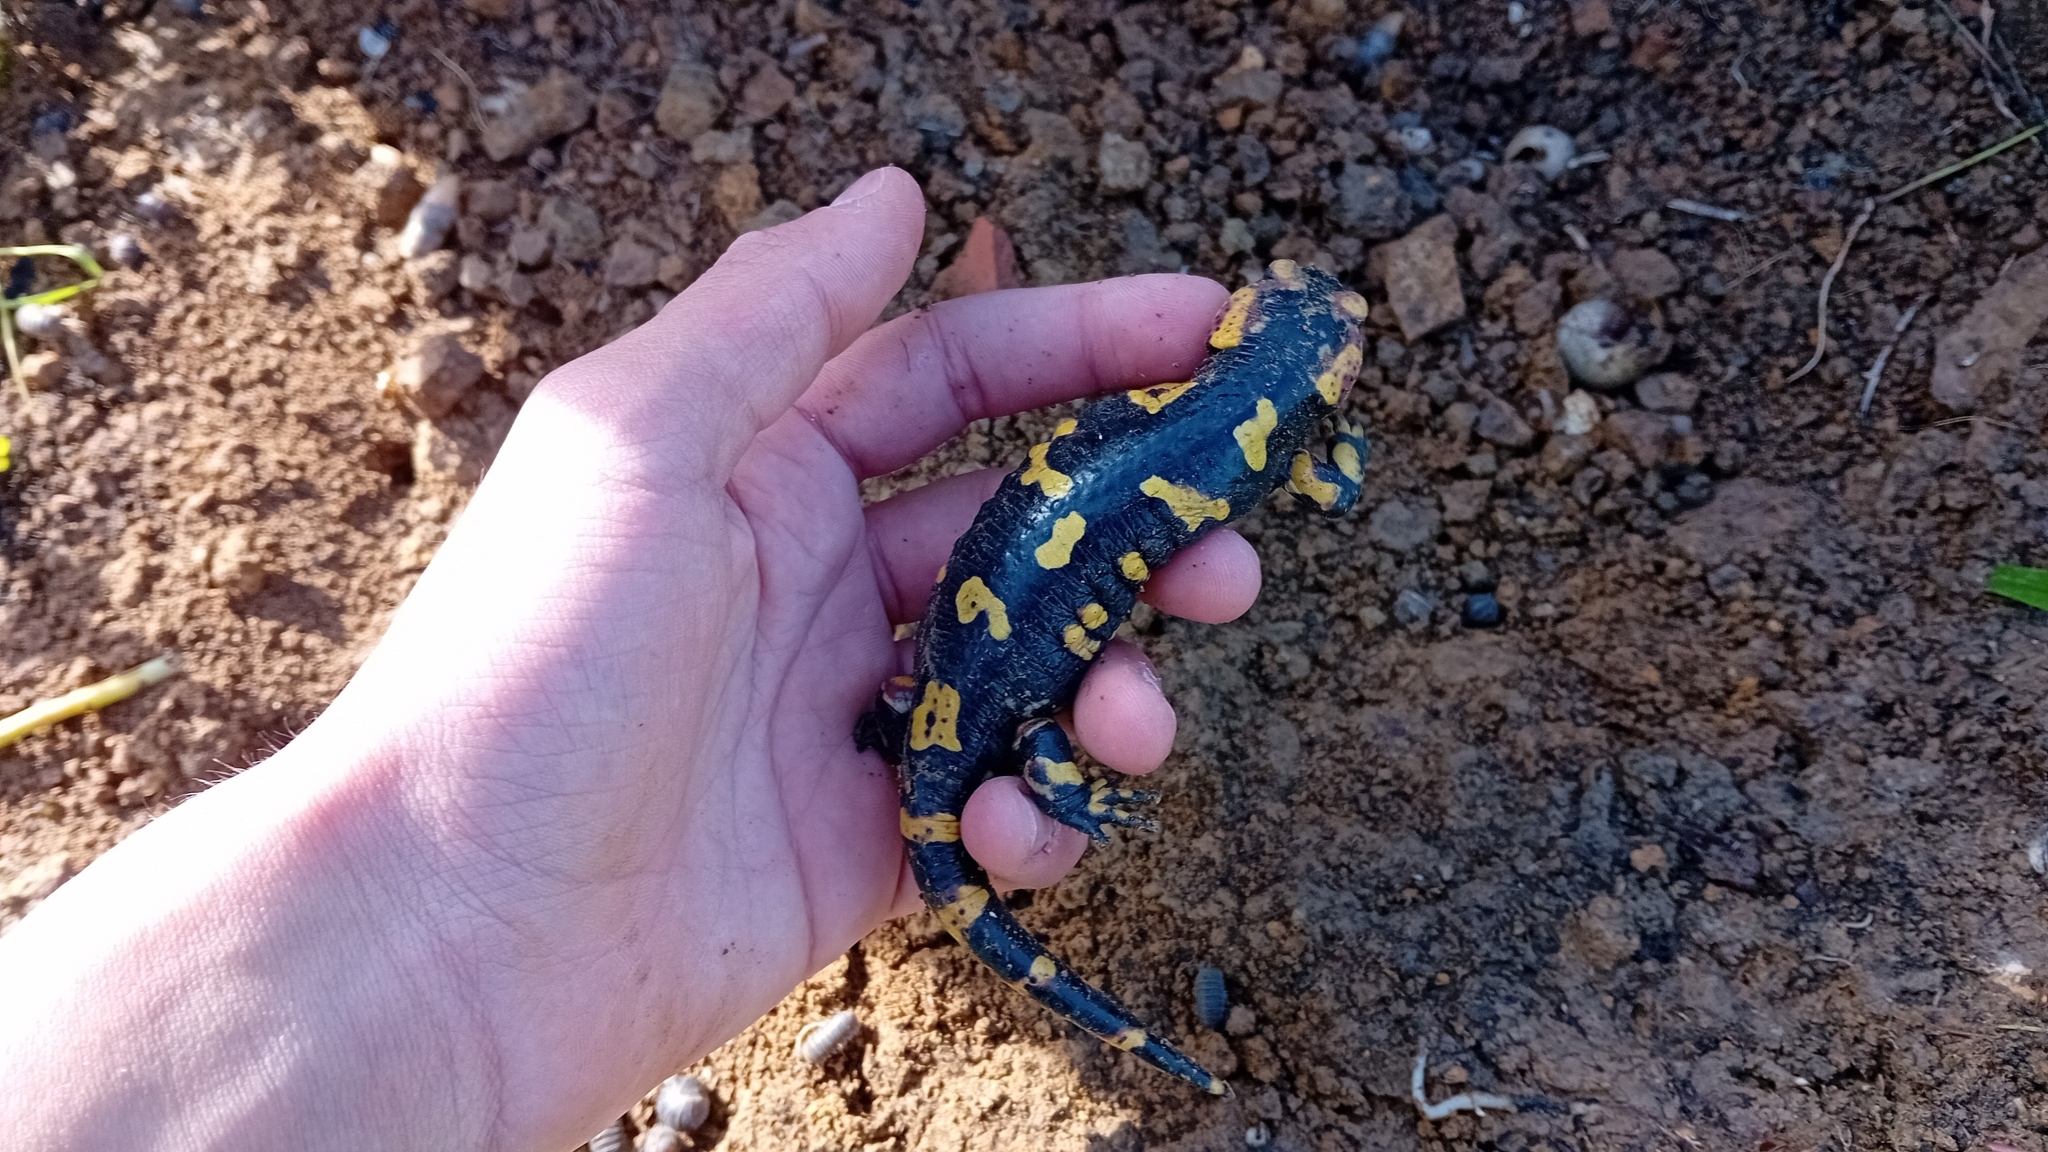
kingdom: Animalia
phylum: Chordata
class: Amphibia
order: Caudata
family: Salamandridae
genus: Salamandra
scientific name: Salamandra salamandra
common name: Fire salamander
